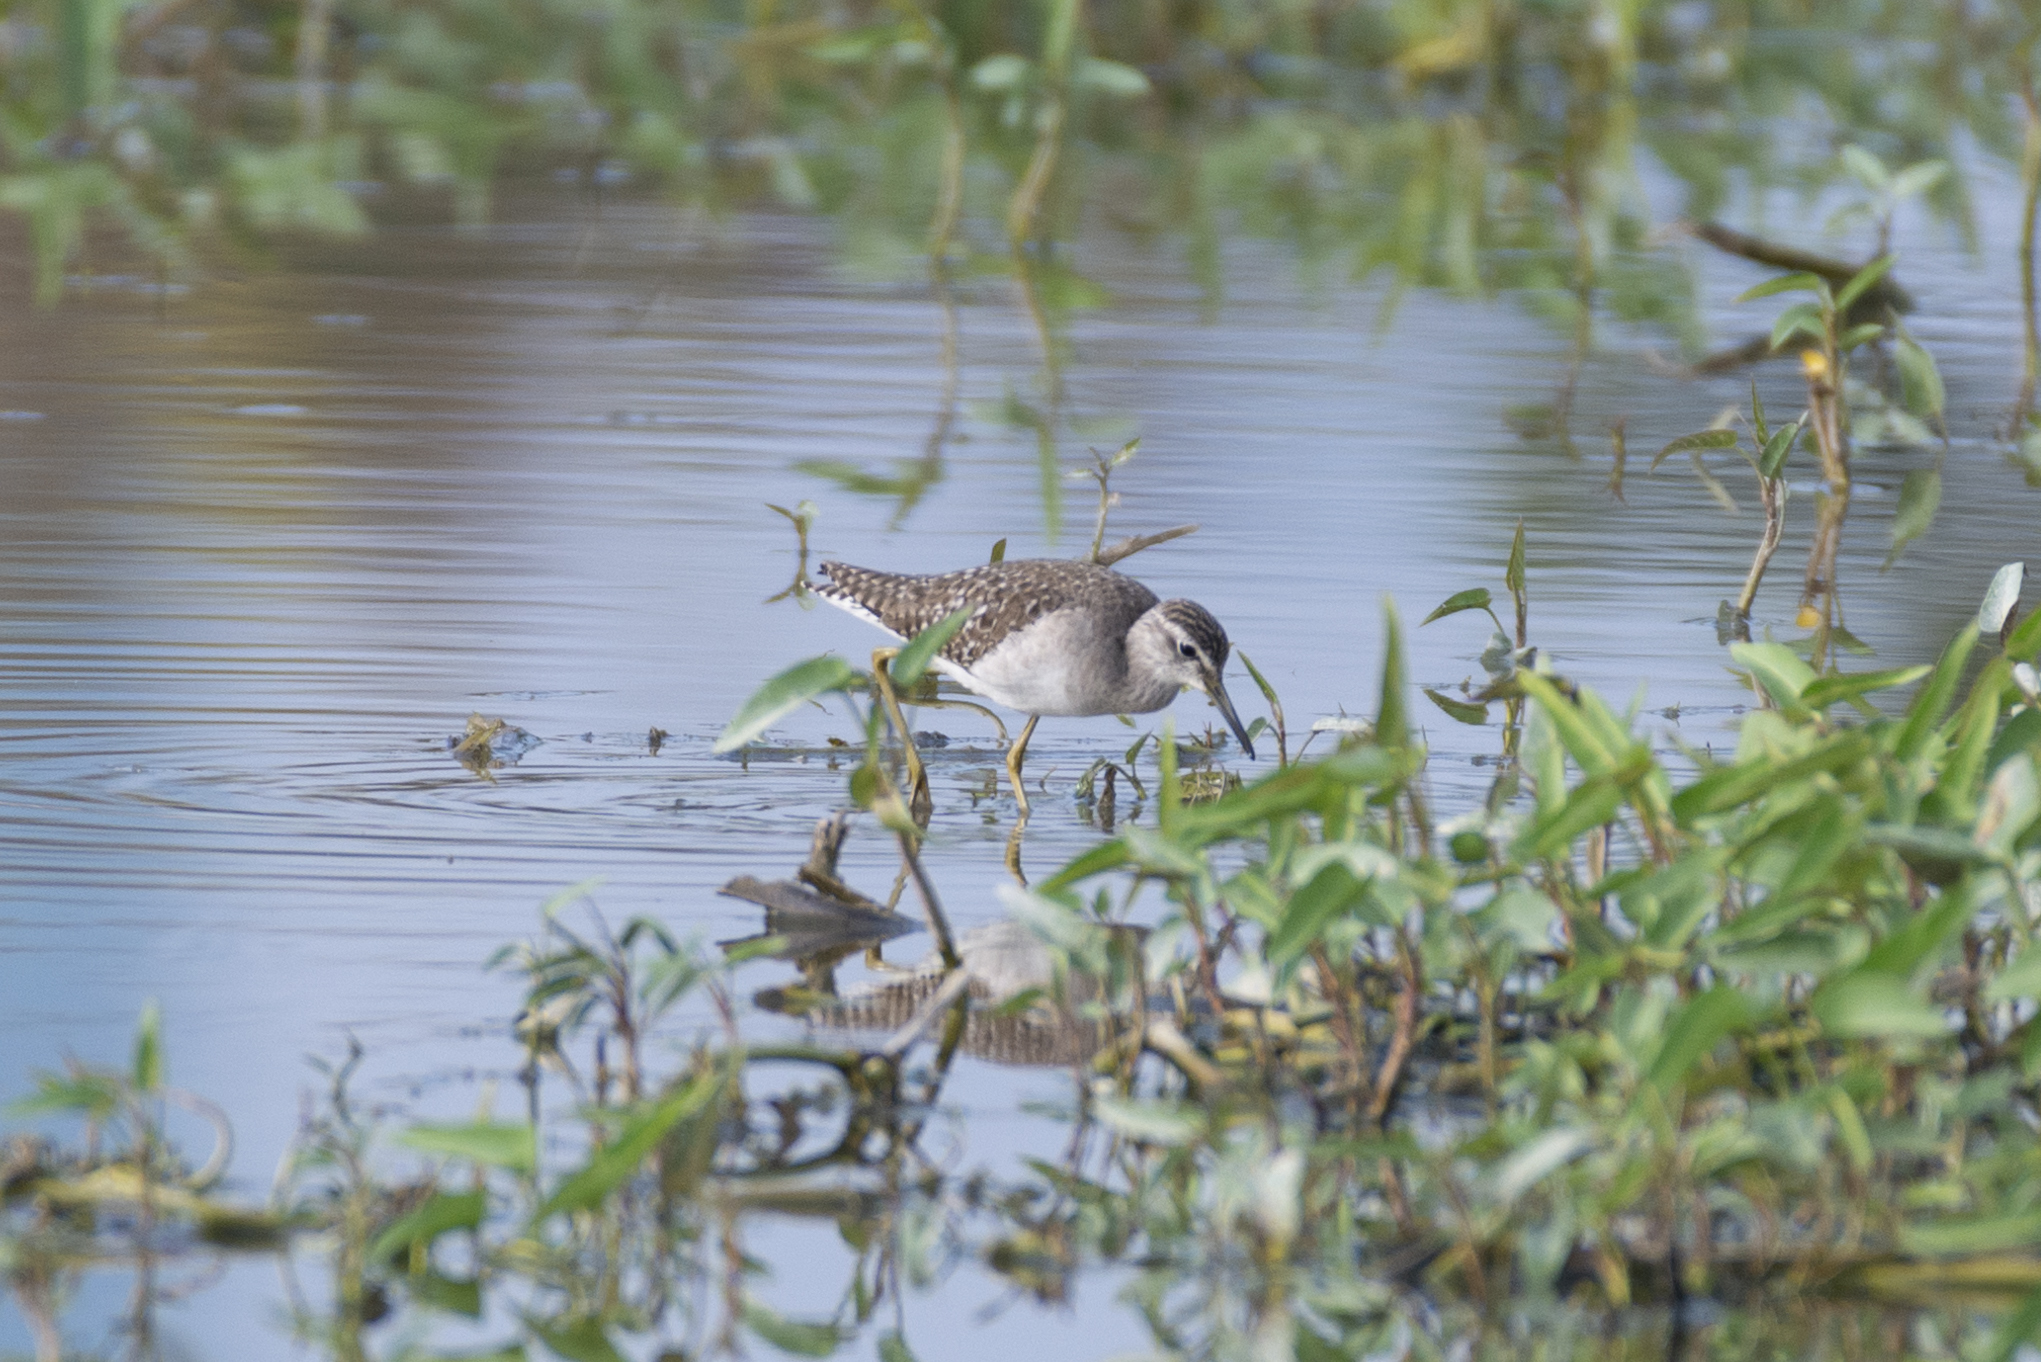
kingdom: Animalia
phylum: Chordata
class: Aves
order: Charadriiformes
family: Scolopacidae
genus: Tringa
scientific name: Tringa glareola
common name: Wood sandpiper
